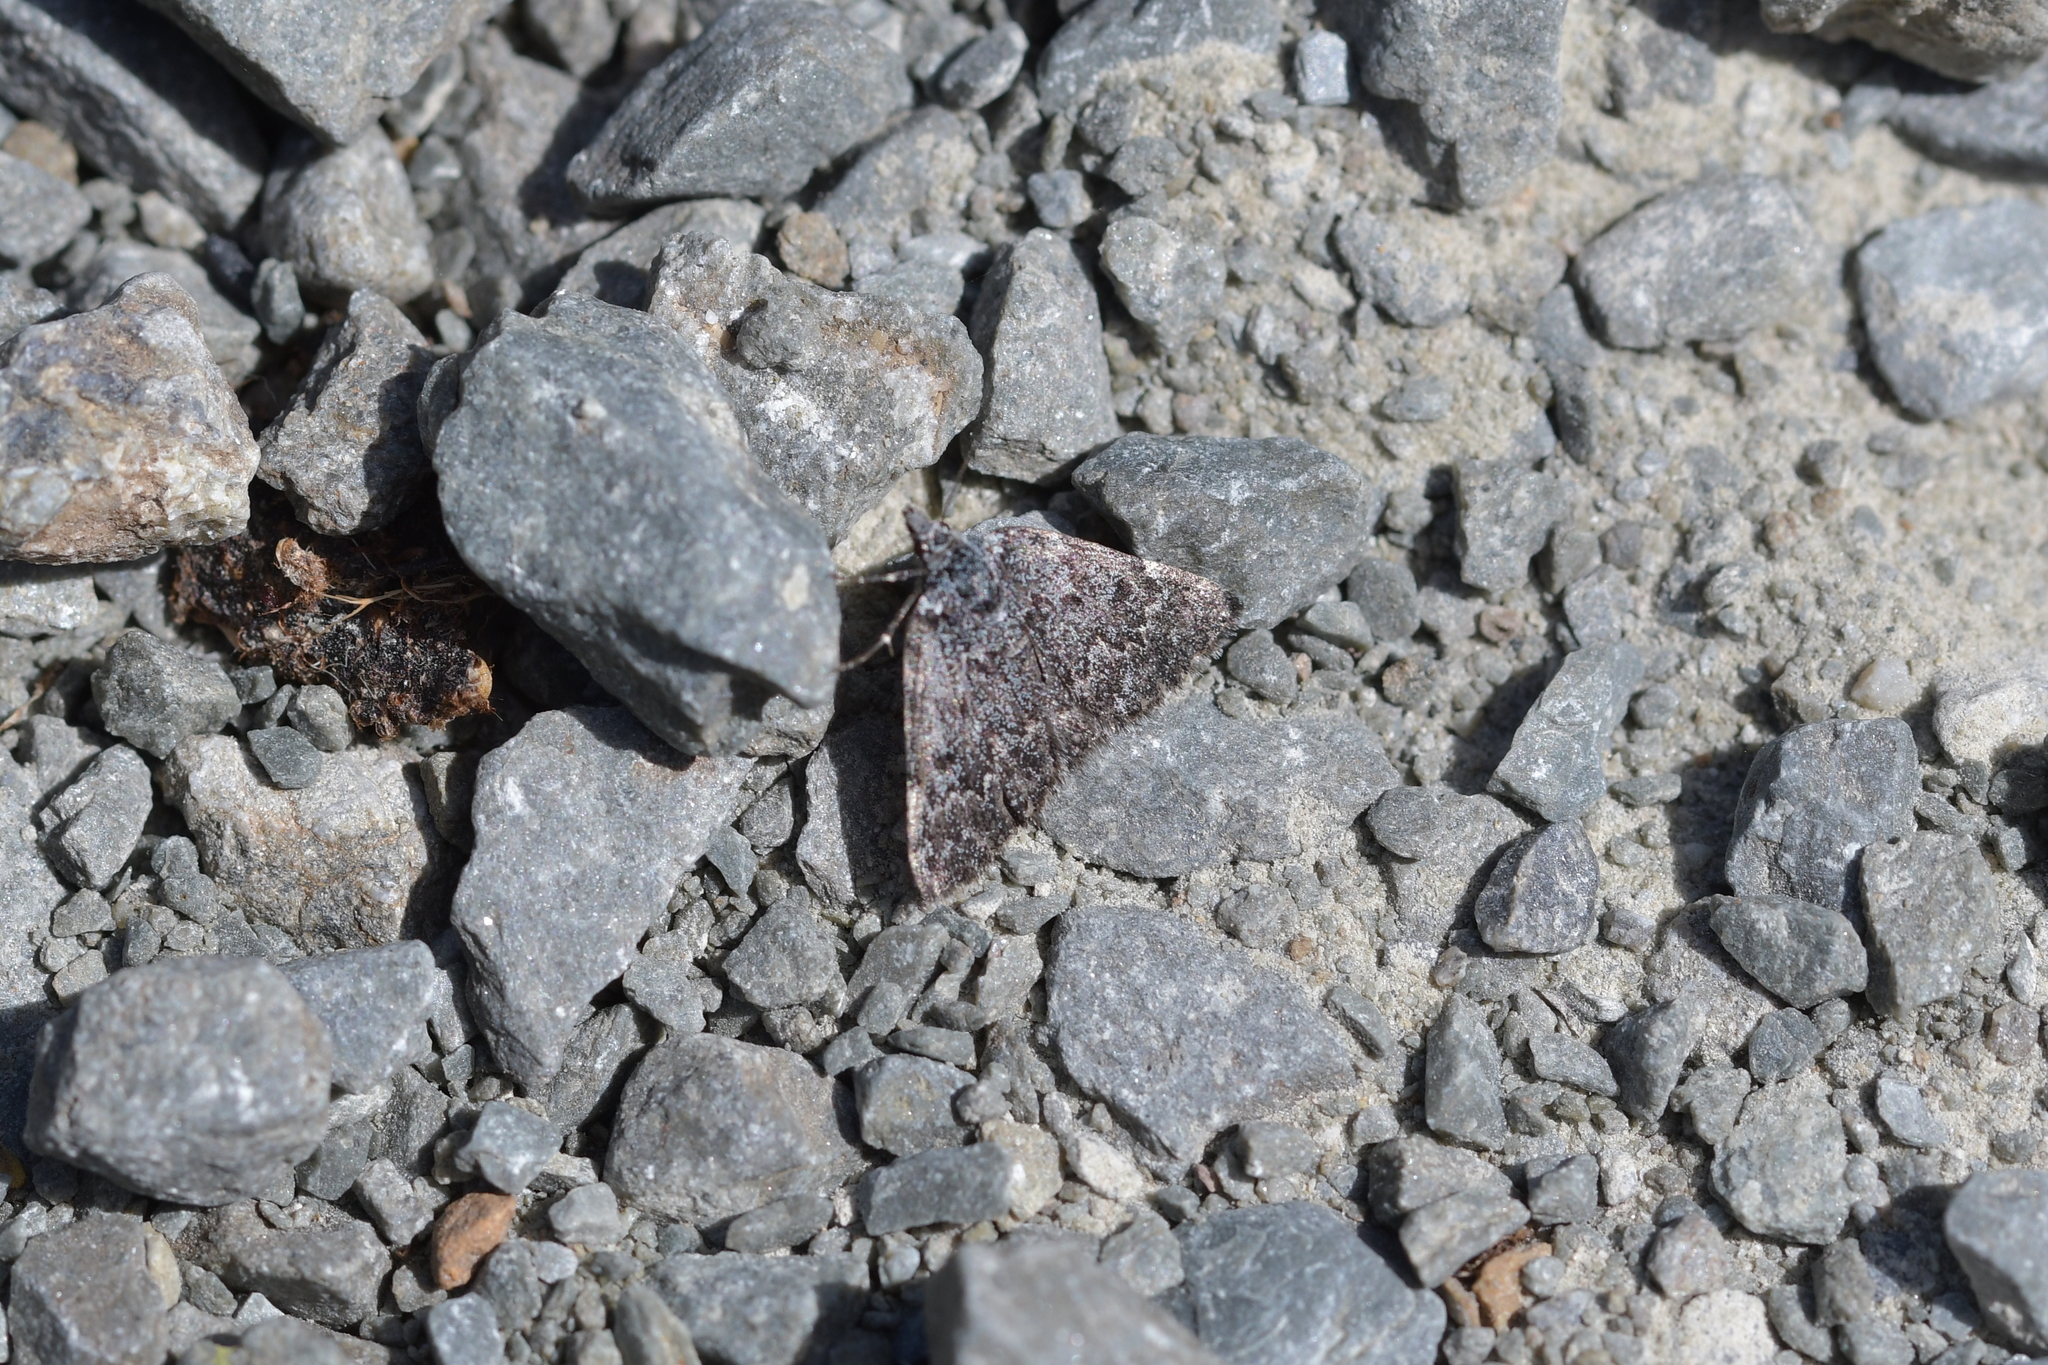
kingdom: Animalia
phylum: Arthropoda
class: Insecta
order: Lepidoptera
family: Geometridae
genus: Dichromodes
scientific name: Dichromodes niger
